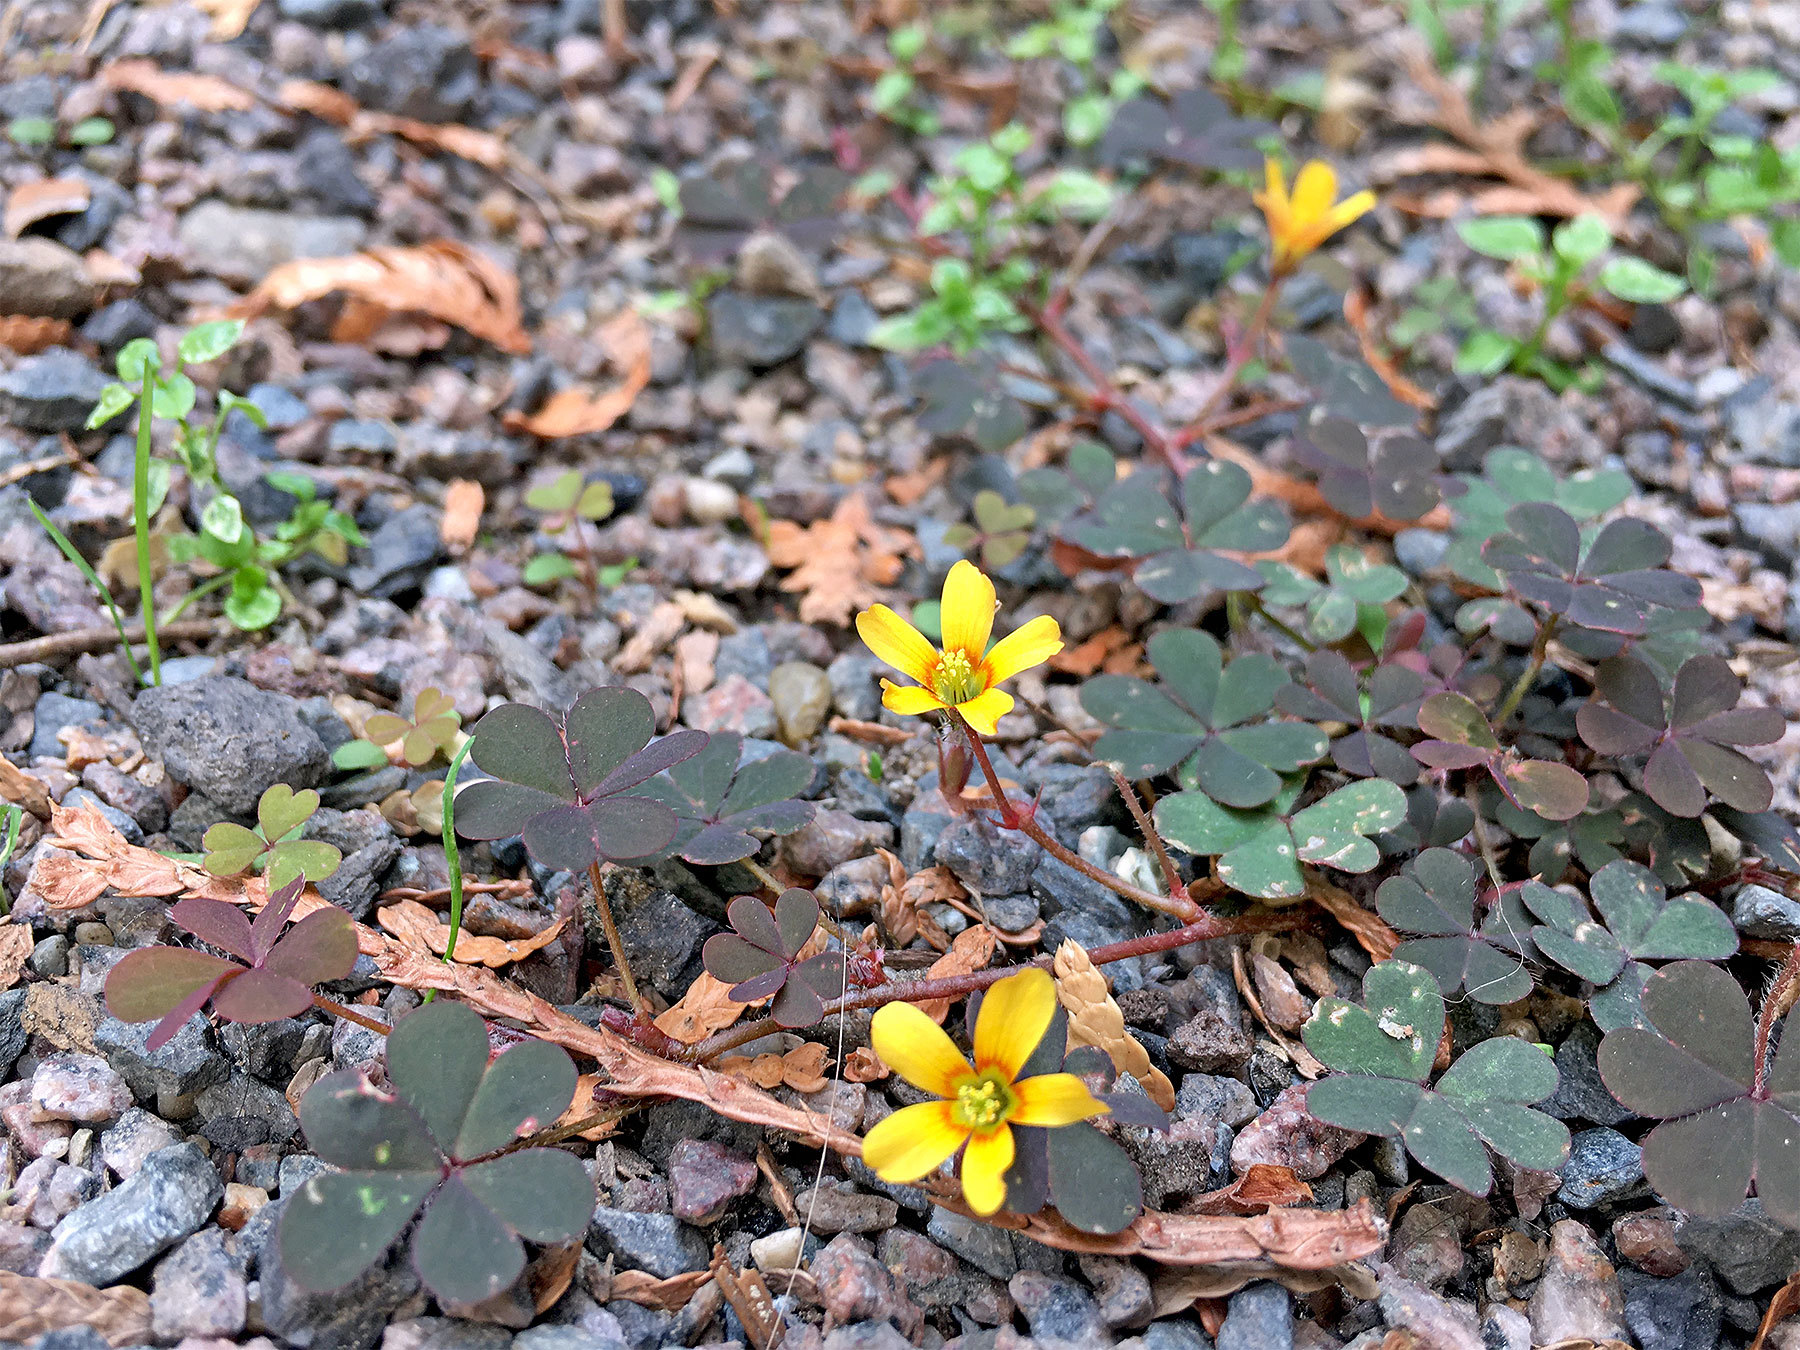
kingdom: Plantae
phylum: Tracheophyta
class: Magnoliopsida
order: Oxalidales
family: Oxalidaceae
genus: Oxalis
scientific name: Oxalis corniculata
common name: Procumbent yellow-sorrel
